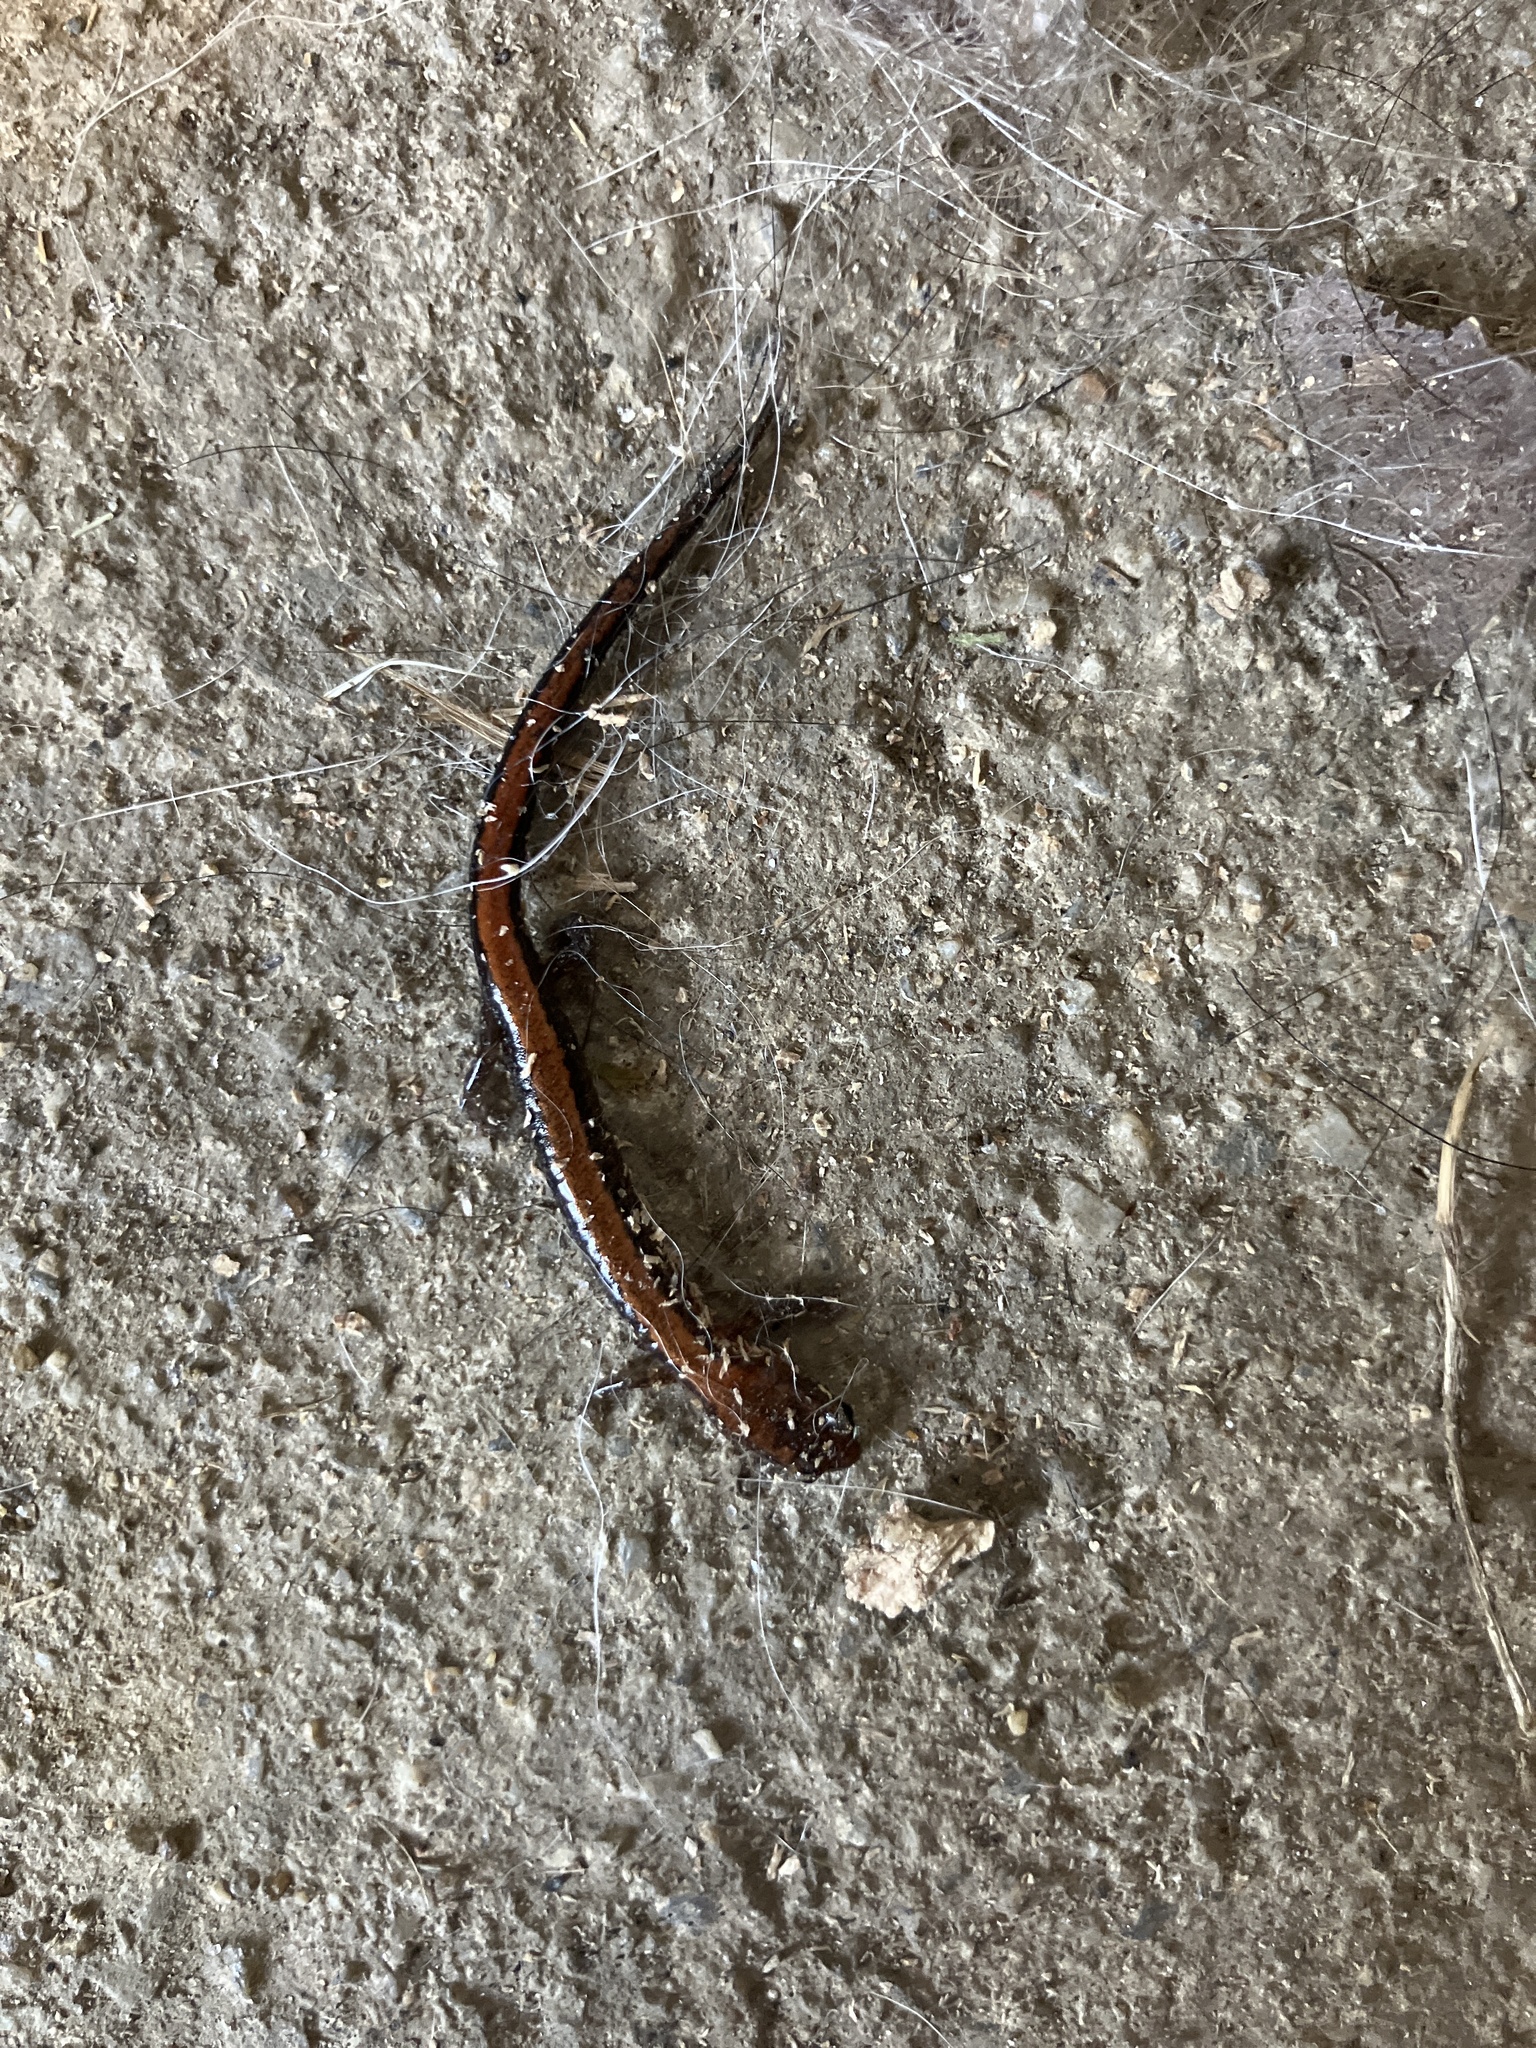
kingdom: Animalia
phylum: Chordata
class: Amphibia
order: Caudata
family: Plethodontidae
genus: Plethodon
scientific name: Plethodon cinereus
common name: Redback salamander
